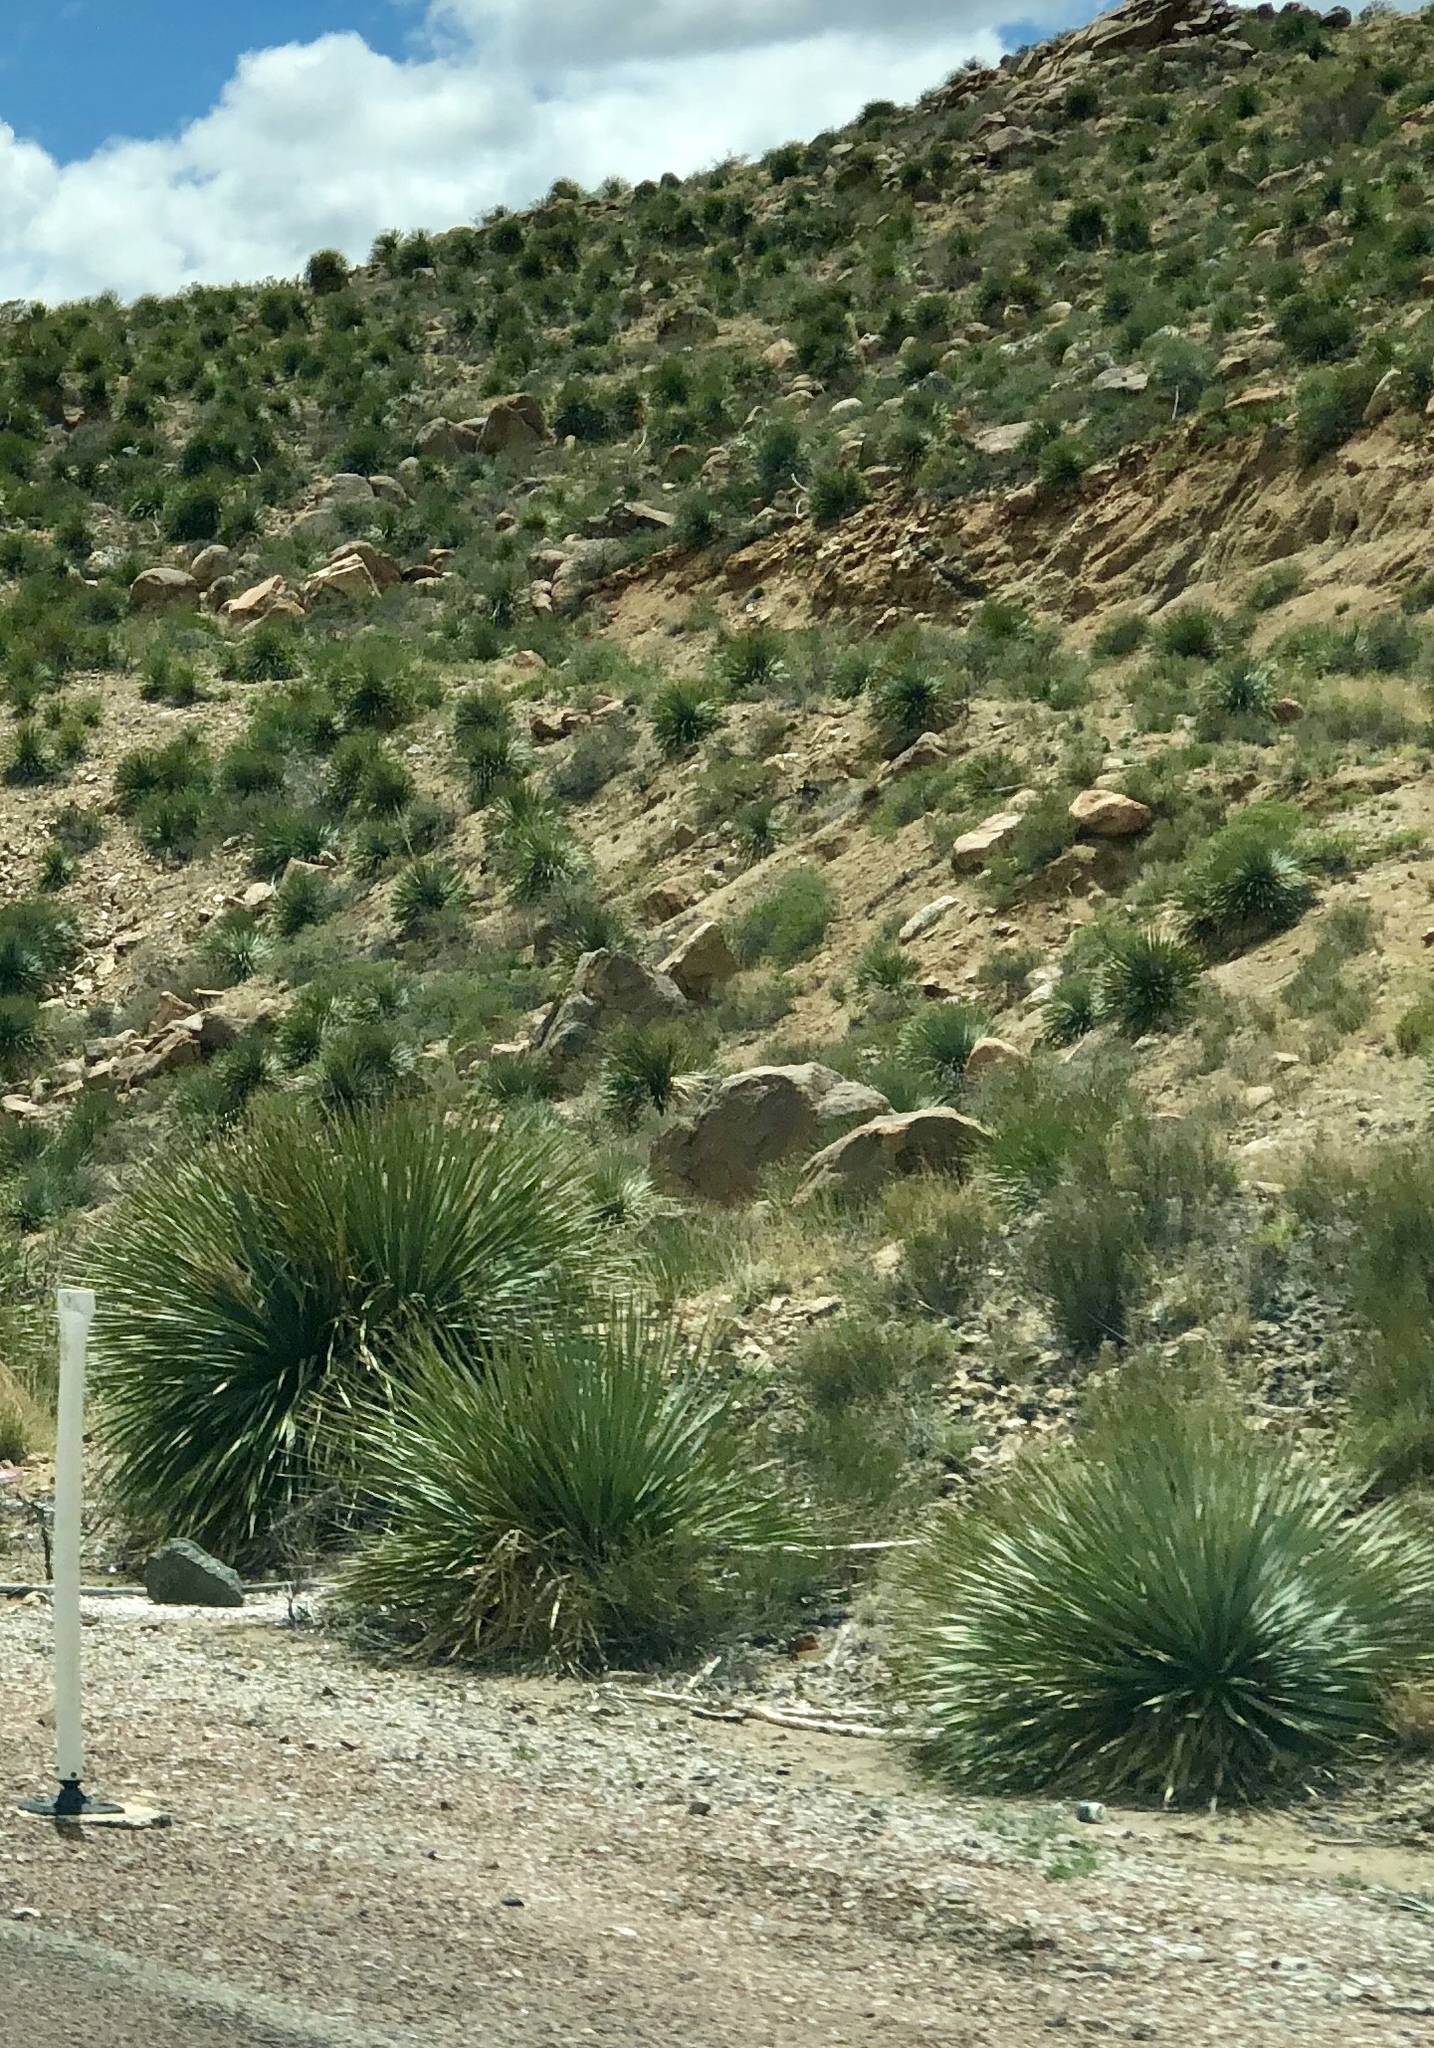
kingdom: Plantae
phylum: Tracheophyta
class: Liliopsida
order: Asparagales
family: Asparagaceae
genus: Dasylirion
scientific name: Dasylirion wheeleri
